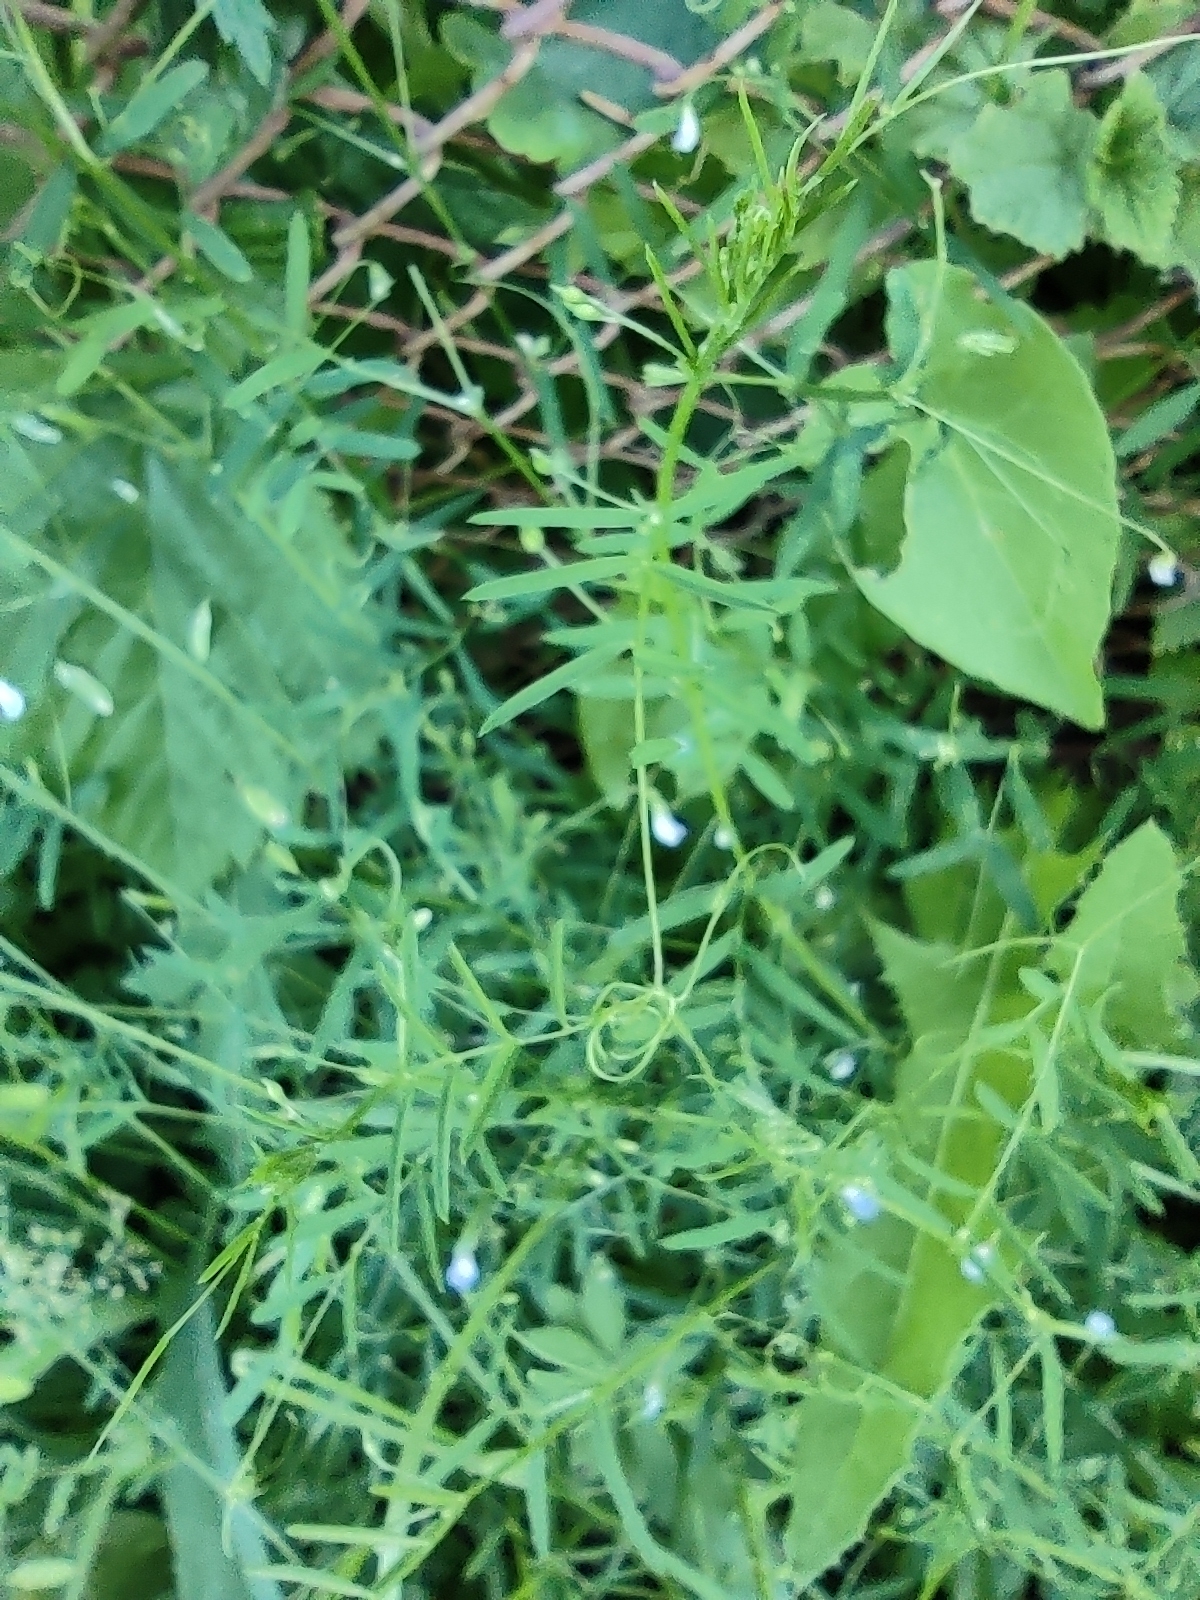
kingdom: Plantae
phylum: Tracheophyta
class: Magnoliopsida
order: Fabales
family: Fabaceae
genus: Vicia
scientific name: Vicia tetrasperma
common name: Smooth tare
